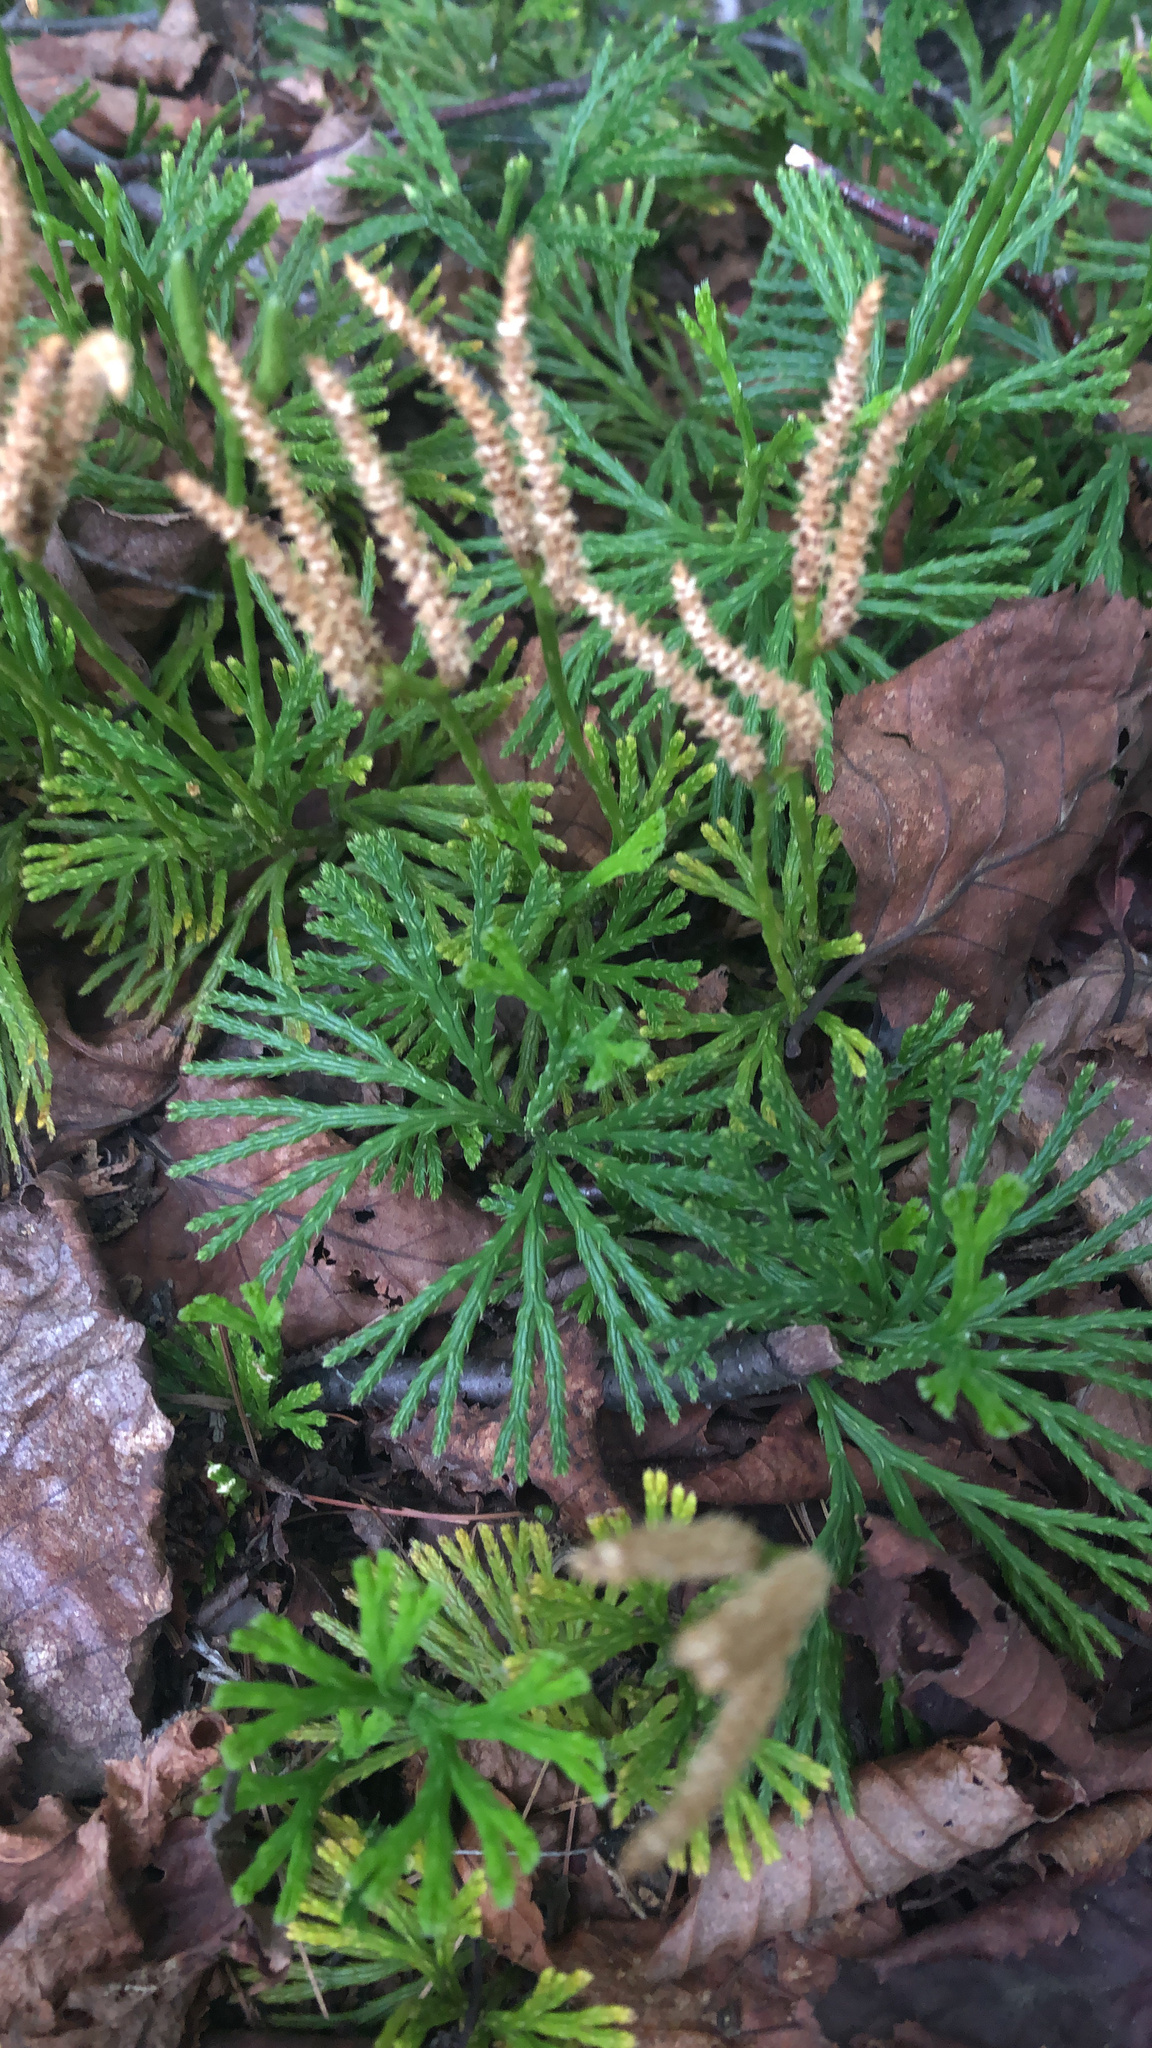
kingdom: Plantae
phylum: Tracheophyta
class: Lycopodiopsida
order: Lycopodiales
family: Lycopodiaceae
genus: Diphasiastrum
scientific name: Diphasiastrum digitatum
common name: Southern running-pine
